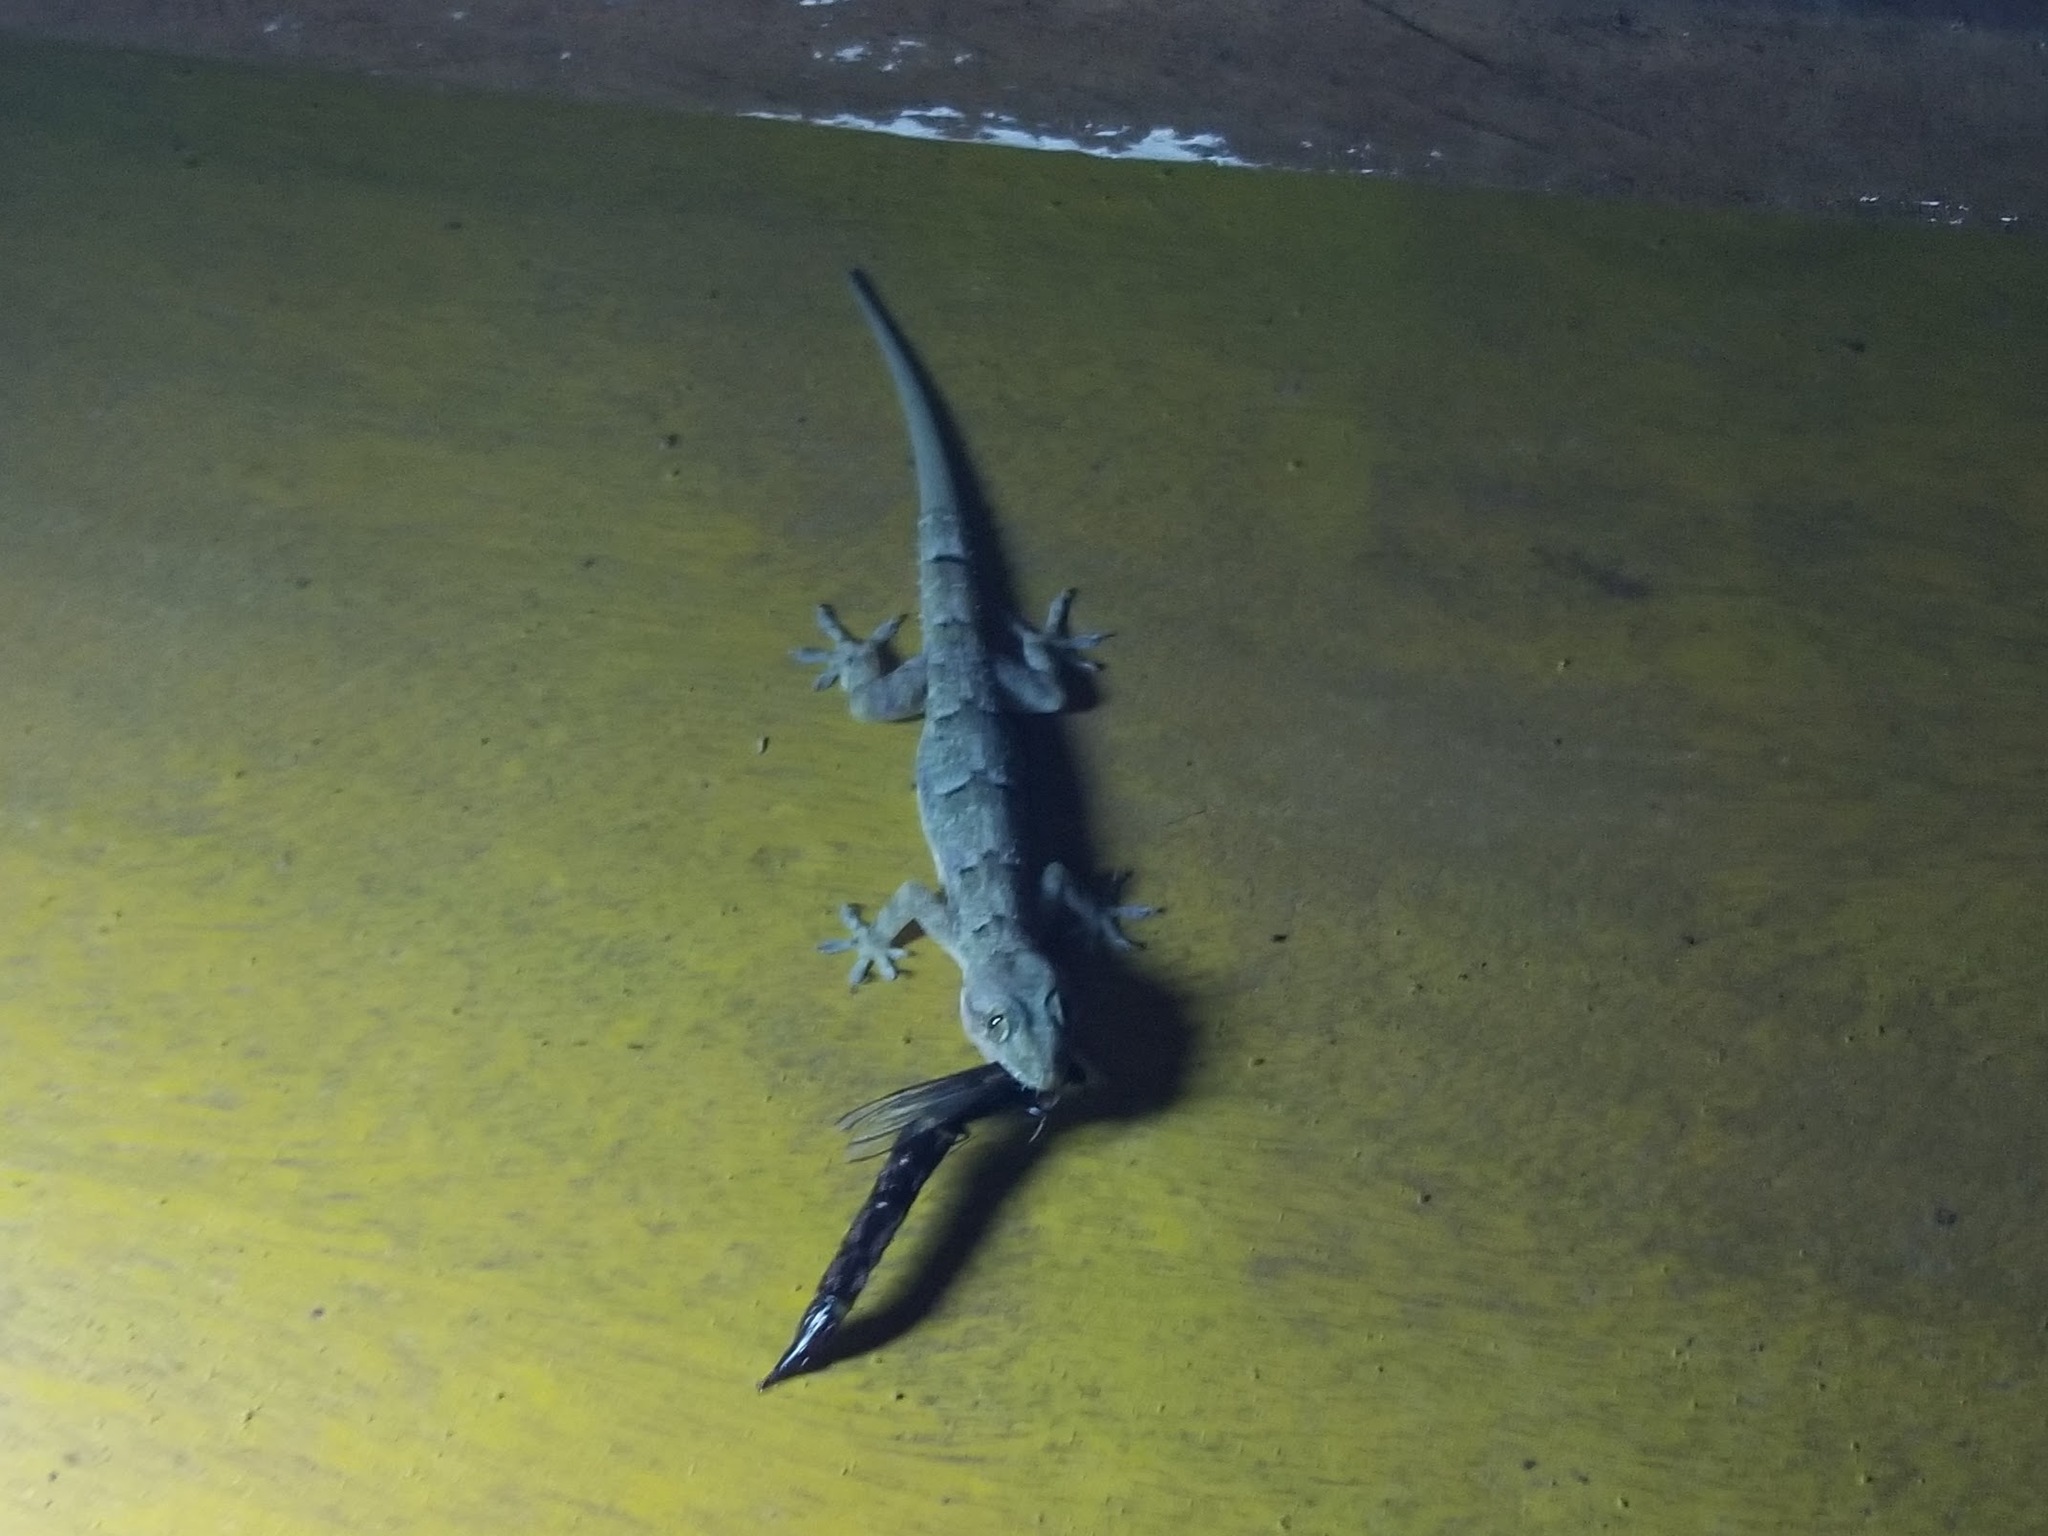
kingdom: Animalia
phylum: Chordata
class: Squamata
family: Gekkonidae
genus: Hemidactylus
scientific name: Hemidactylus mabouia
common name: House gecko
